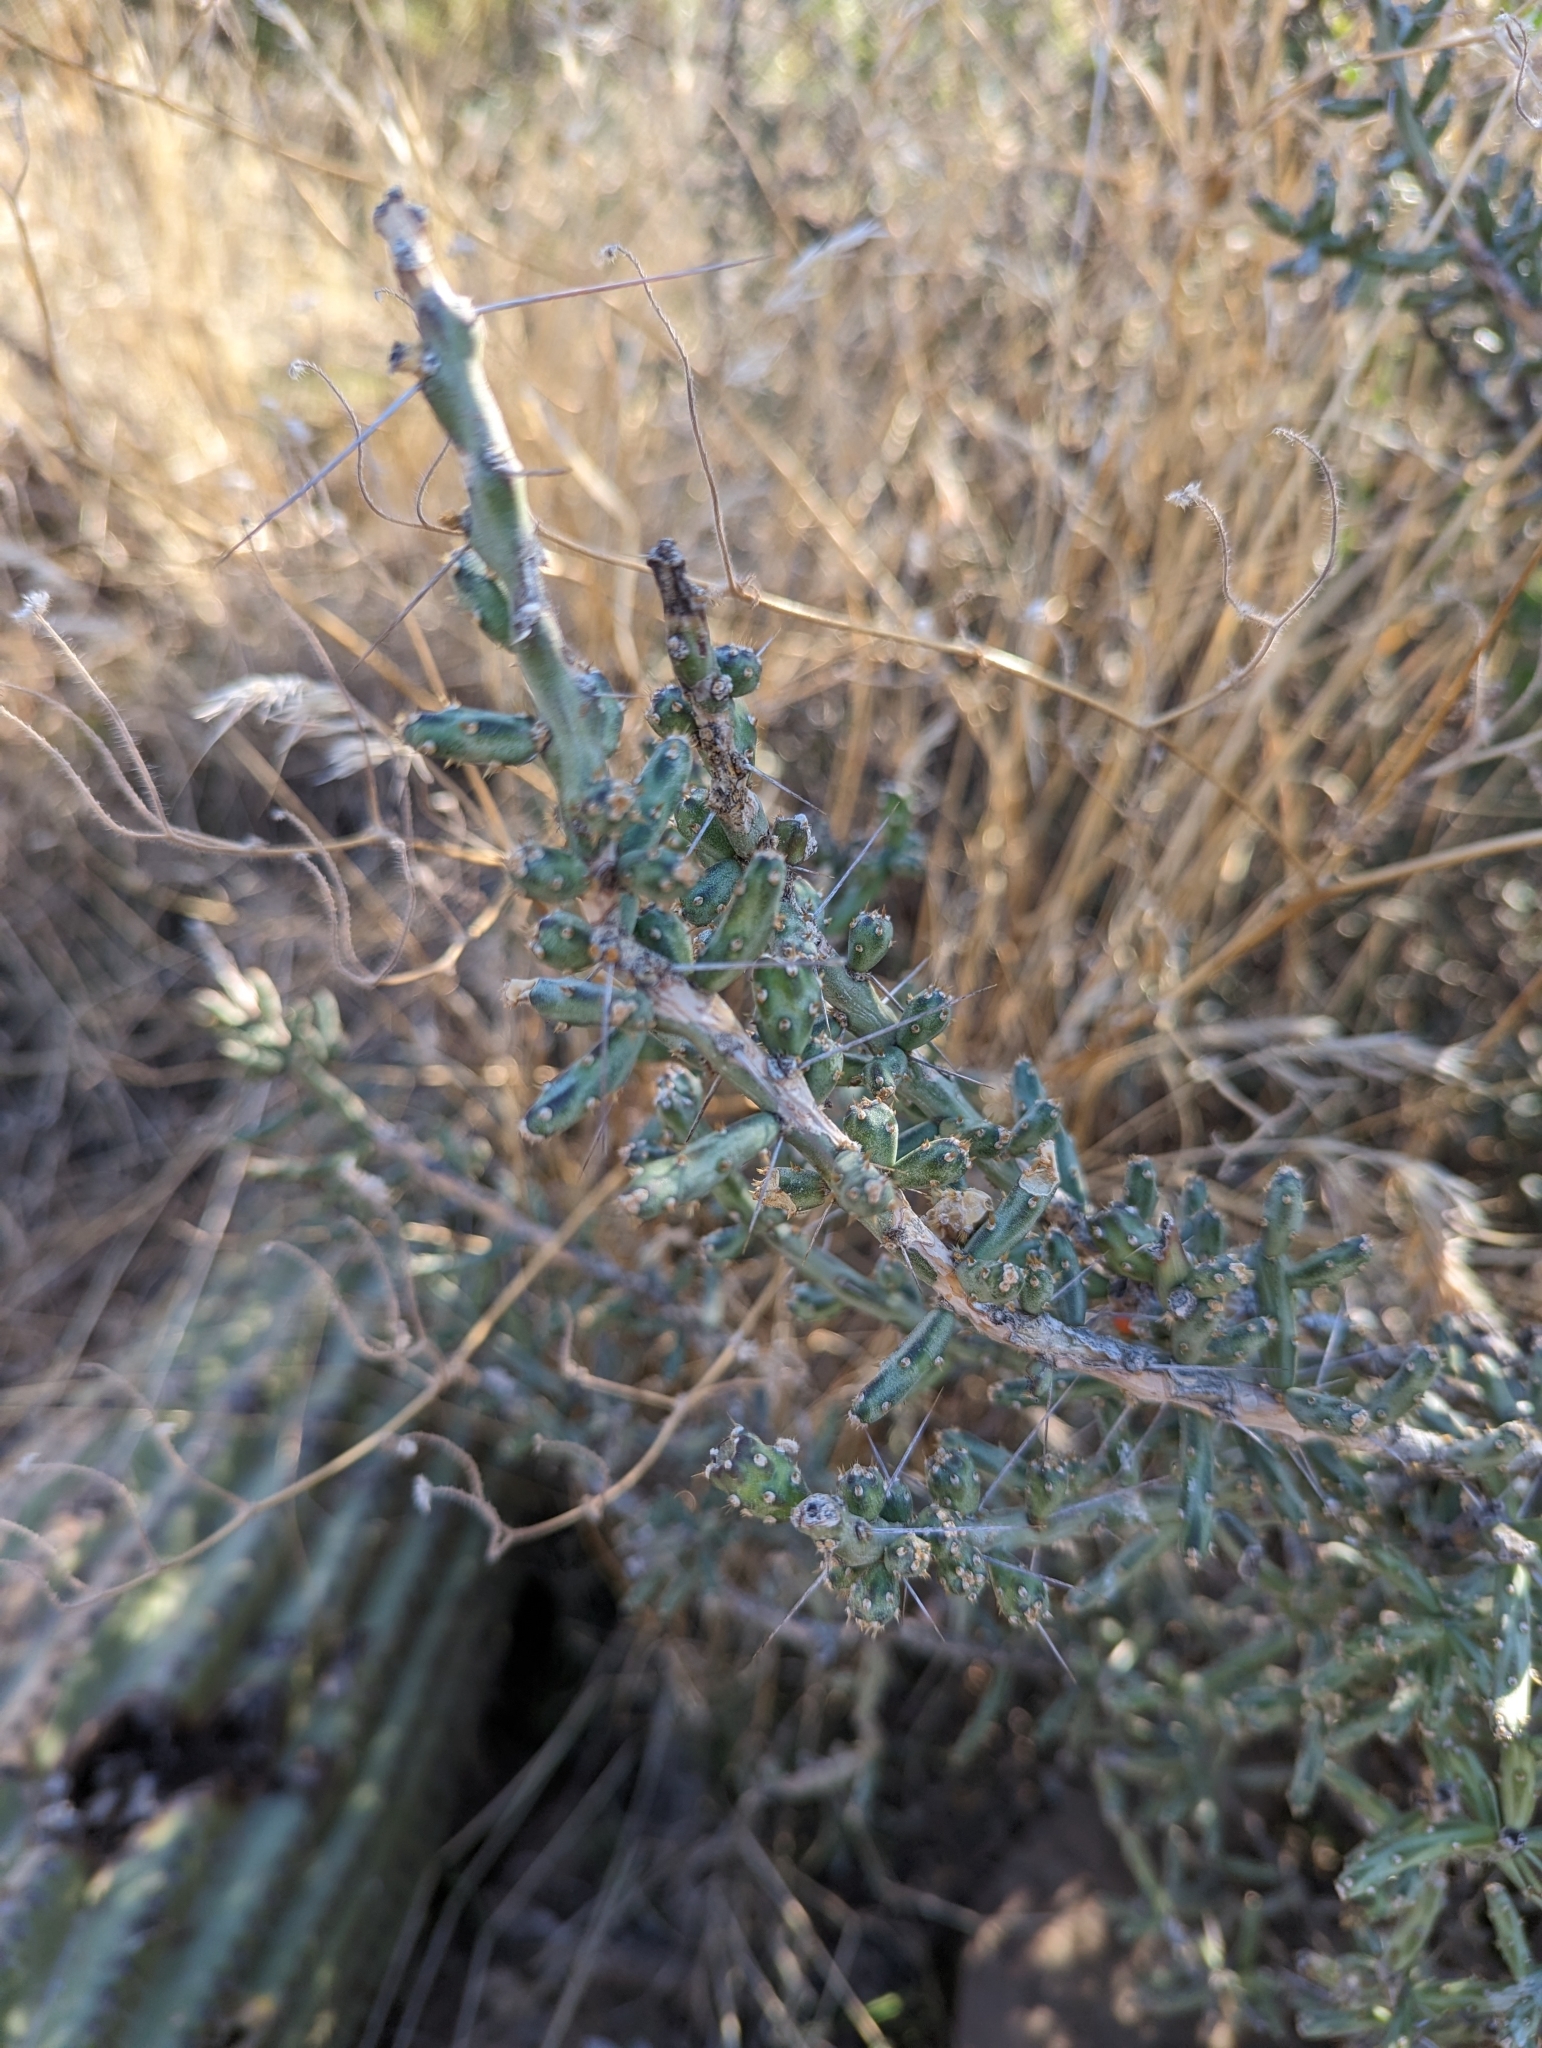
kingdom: Plantae
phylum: Tracheophyta
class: Magnoliopsida
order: Caryophyllales
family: Cactaceae
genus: Cylindropuntia
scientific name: Cylindropuntia leptocaulis
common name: Christmas cactus
